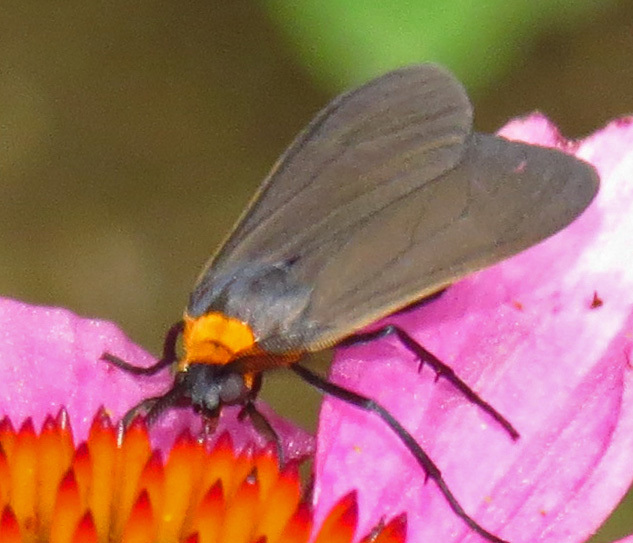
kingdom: Animalia
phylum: Arthropoda
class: Insecta
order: Lepidoptera
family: Erebidae
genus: Cisseps
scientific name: Cisseps fulvicollis
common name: Yellow-collared scape moth
